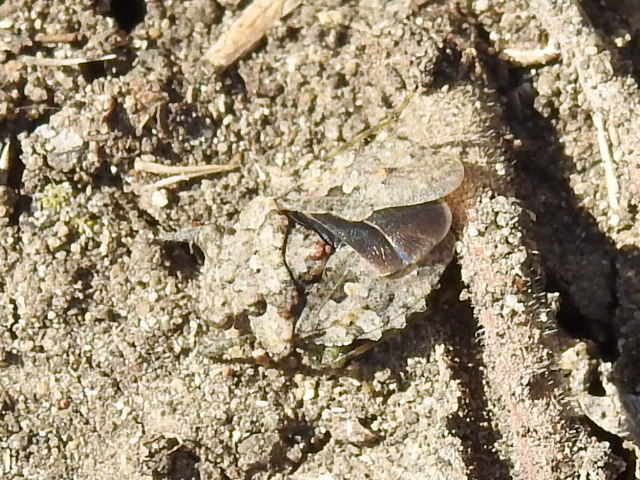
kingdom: Animalia
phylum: Arthropoda
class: Insecta
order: Hemiptera
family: Gelastocoridae
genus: Gelastocoris
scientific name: Gelastocoris oculatus
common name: Toad bug
